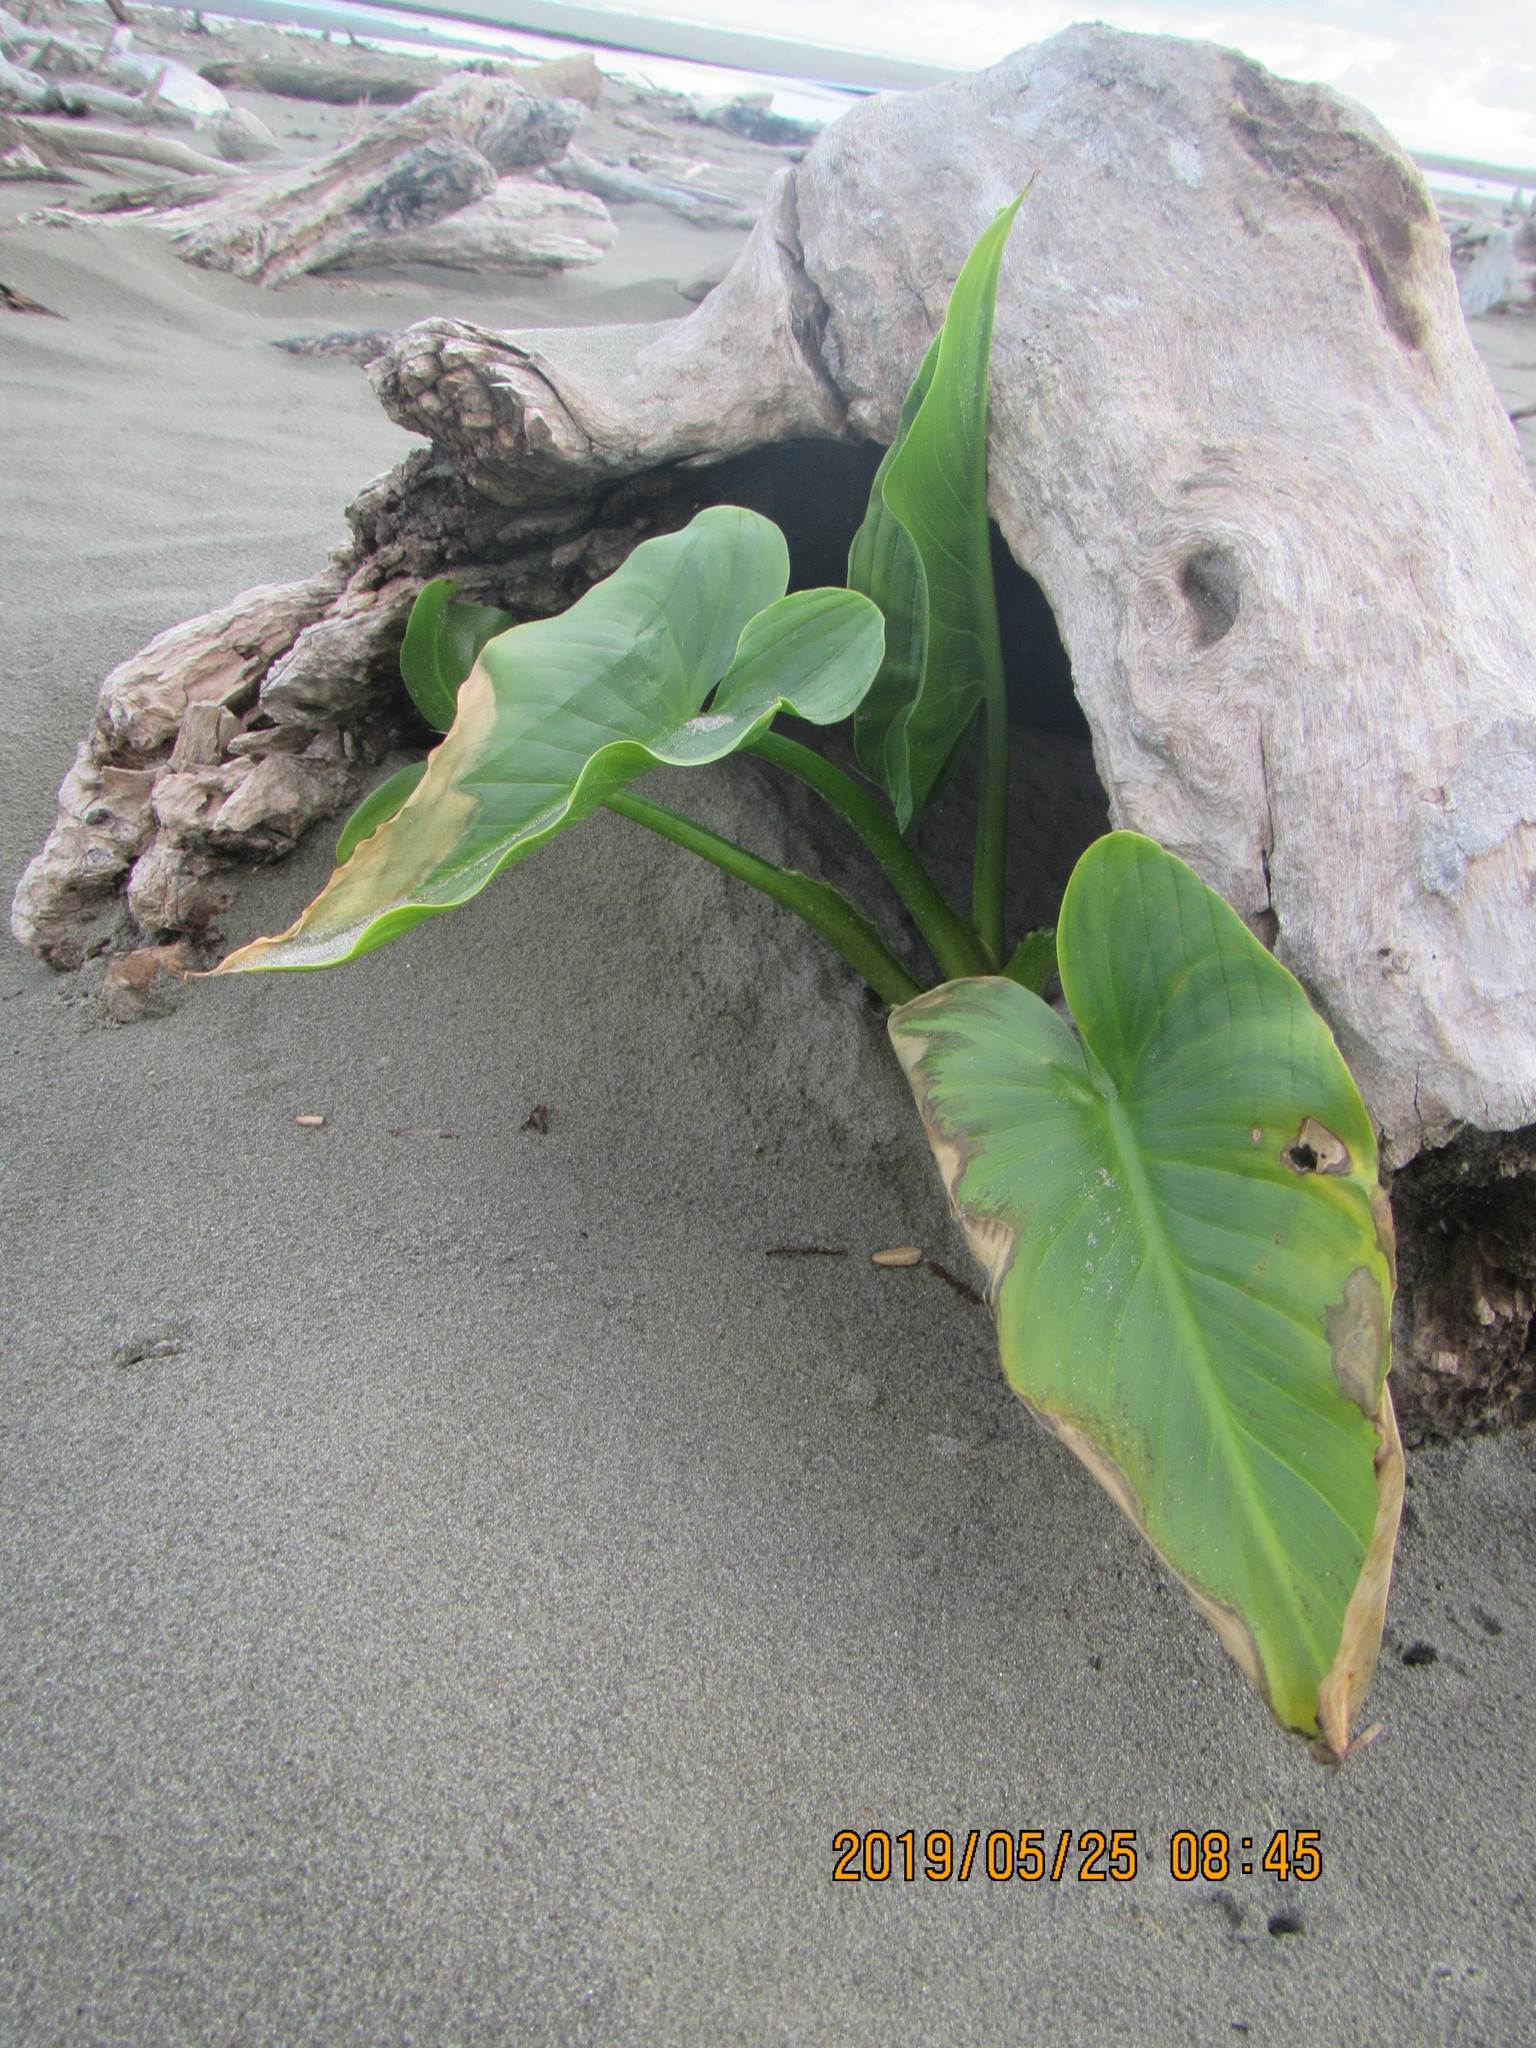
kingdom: Plantae
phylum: Tracheophyta
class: Liliopsida
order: Alismatales
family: Araceae
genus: Zantedeschia
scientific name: Zantedeschia aethiopica
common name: Altar-lily
